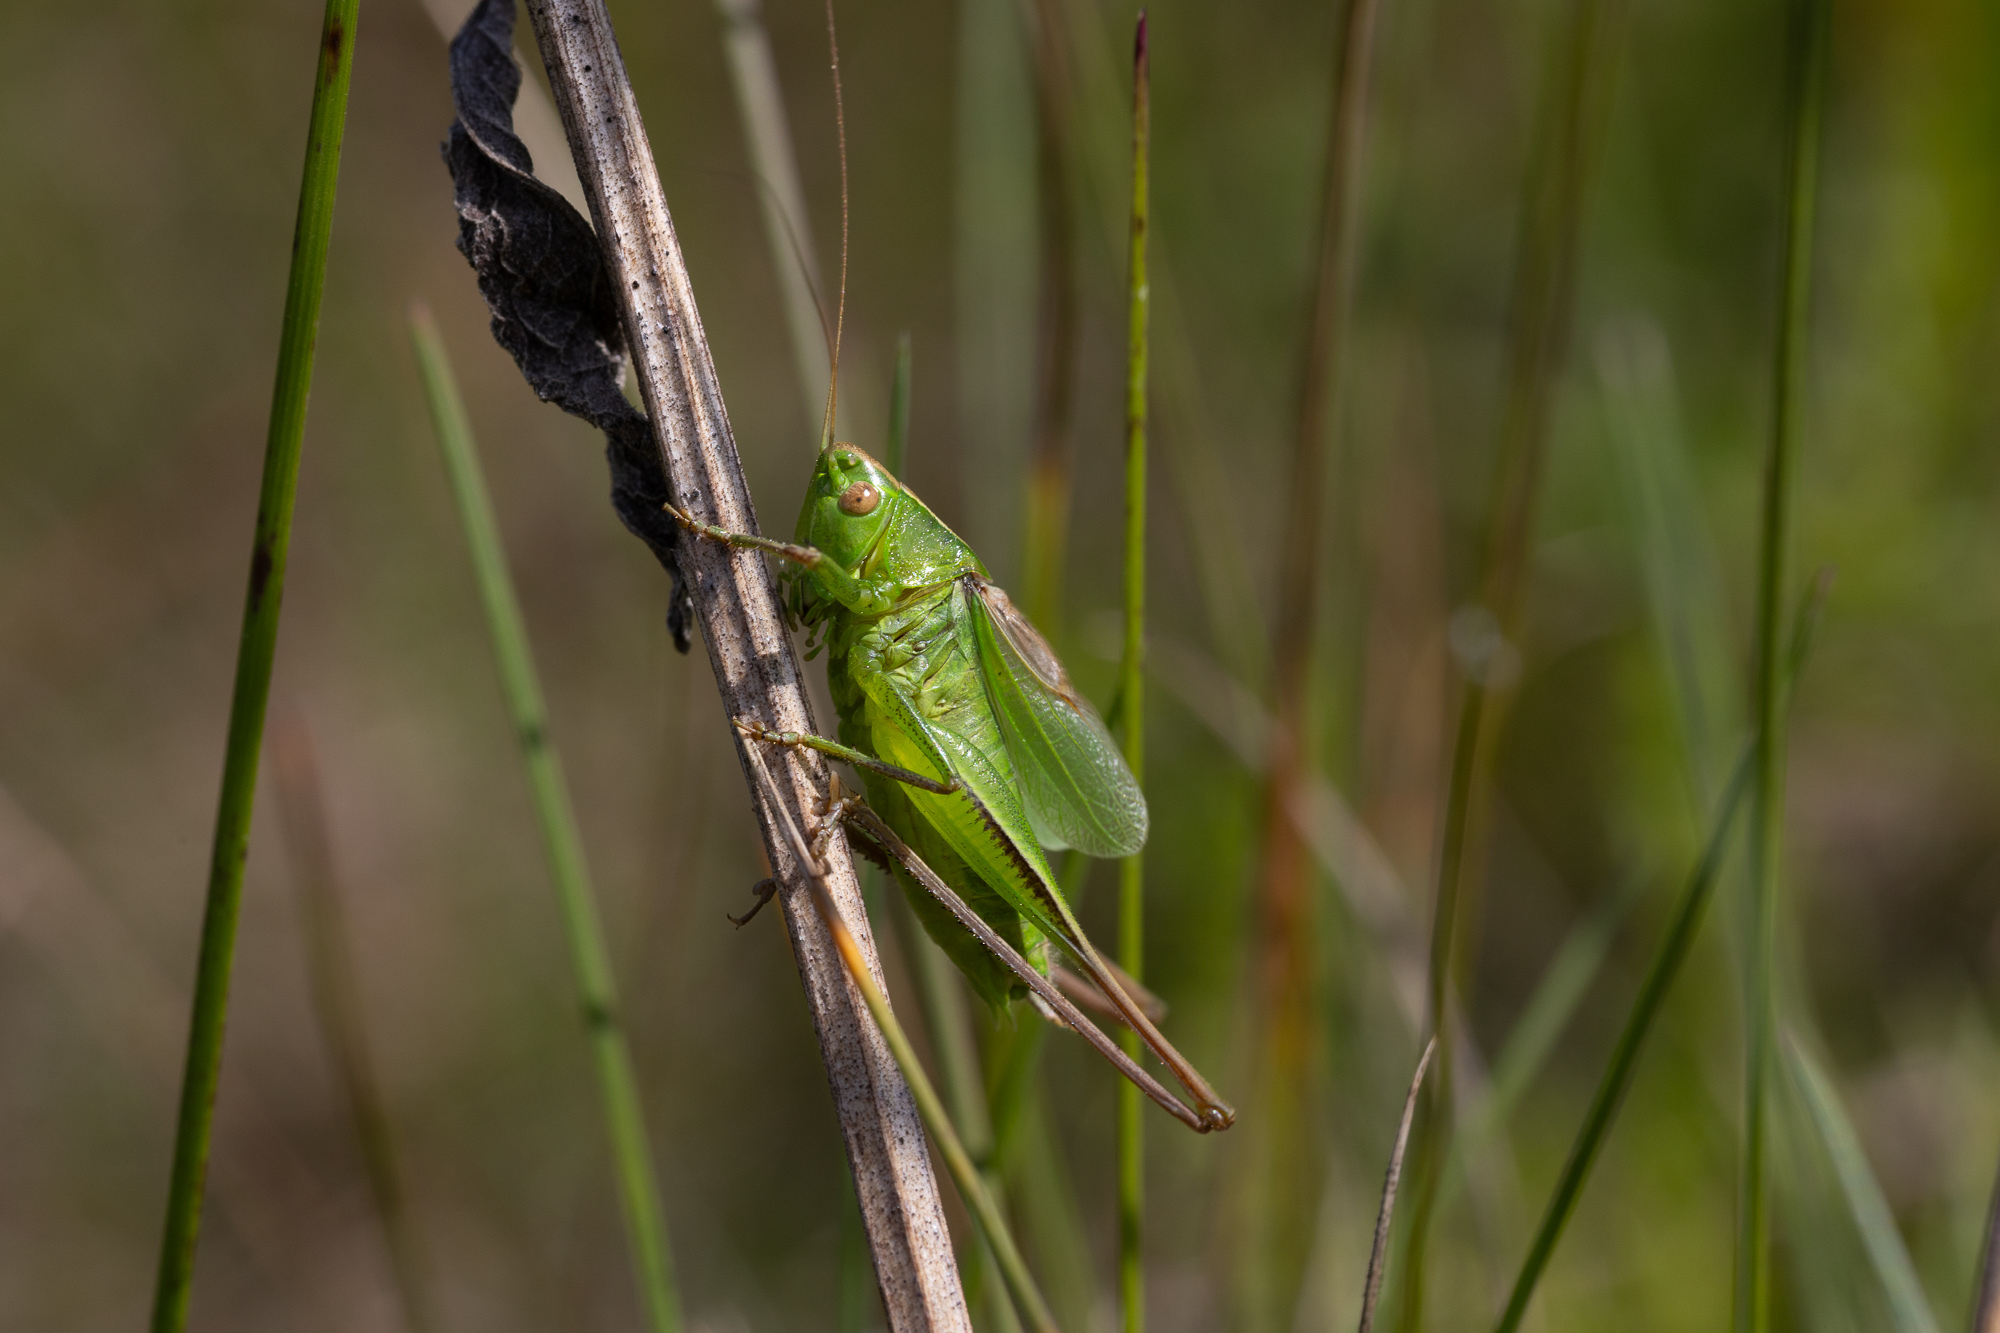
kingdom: Animalia
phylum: Arthropoda
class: Insecta
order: Orthoptera
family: Tettigoniidae
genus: Bicolorana
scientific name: Bicolorana bicolor
